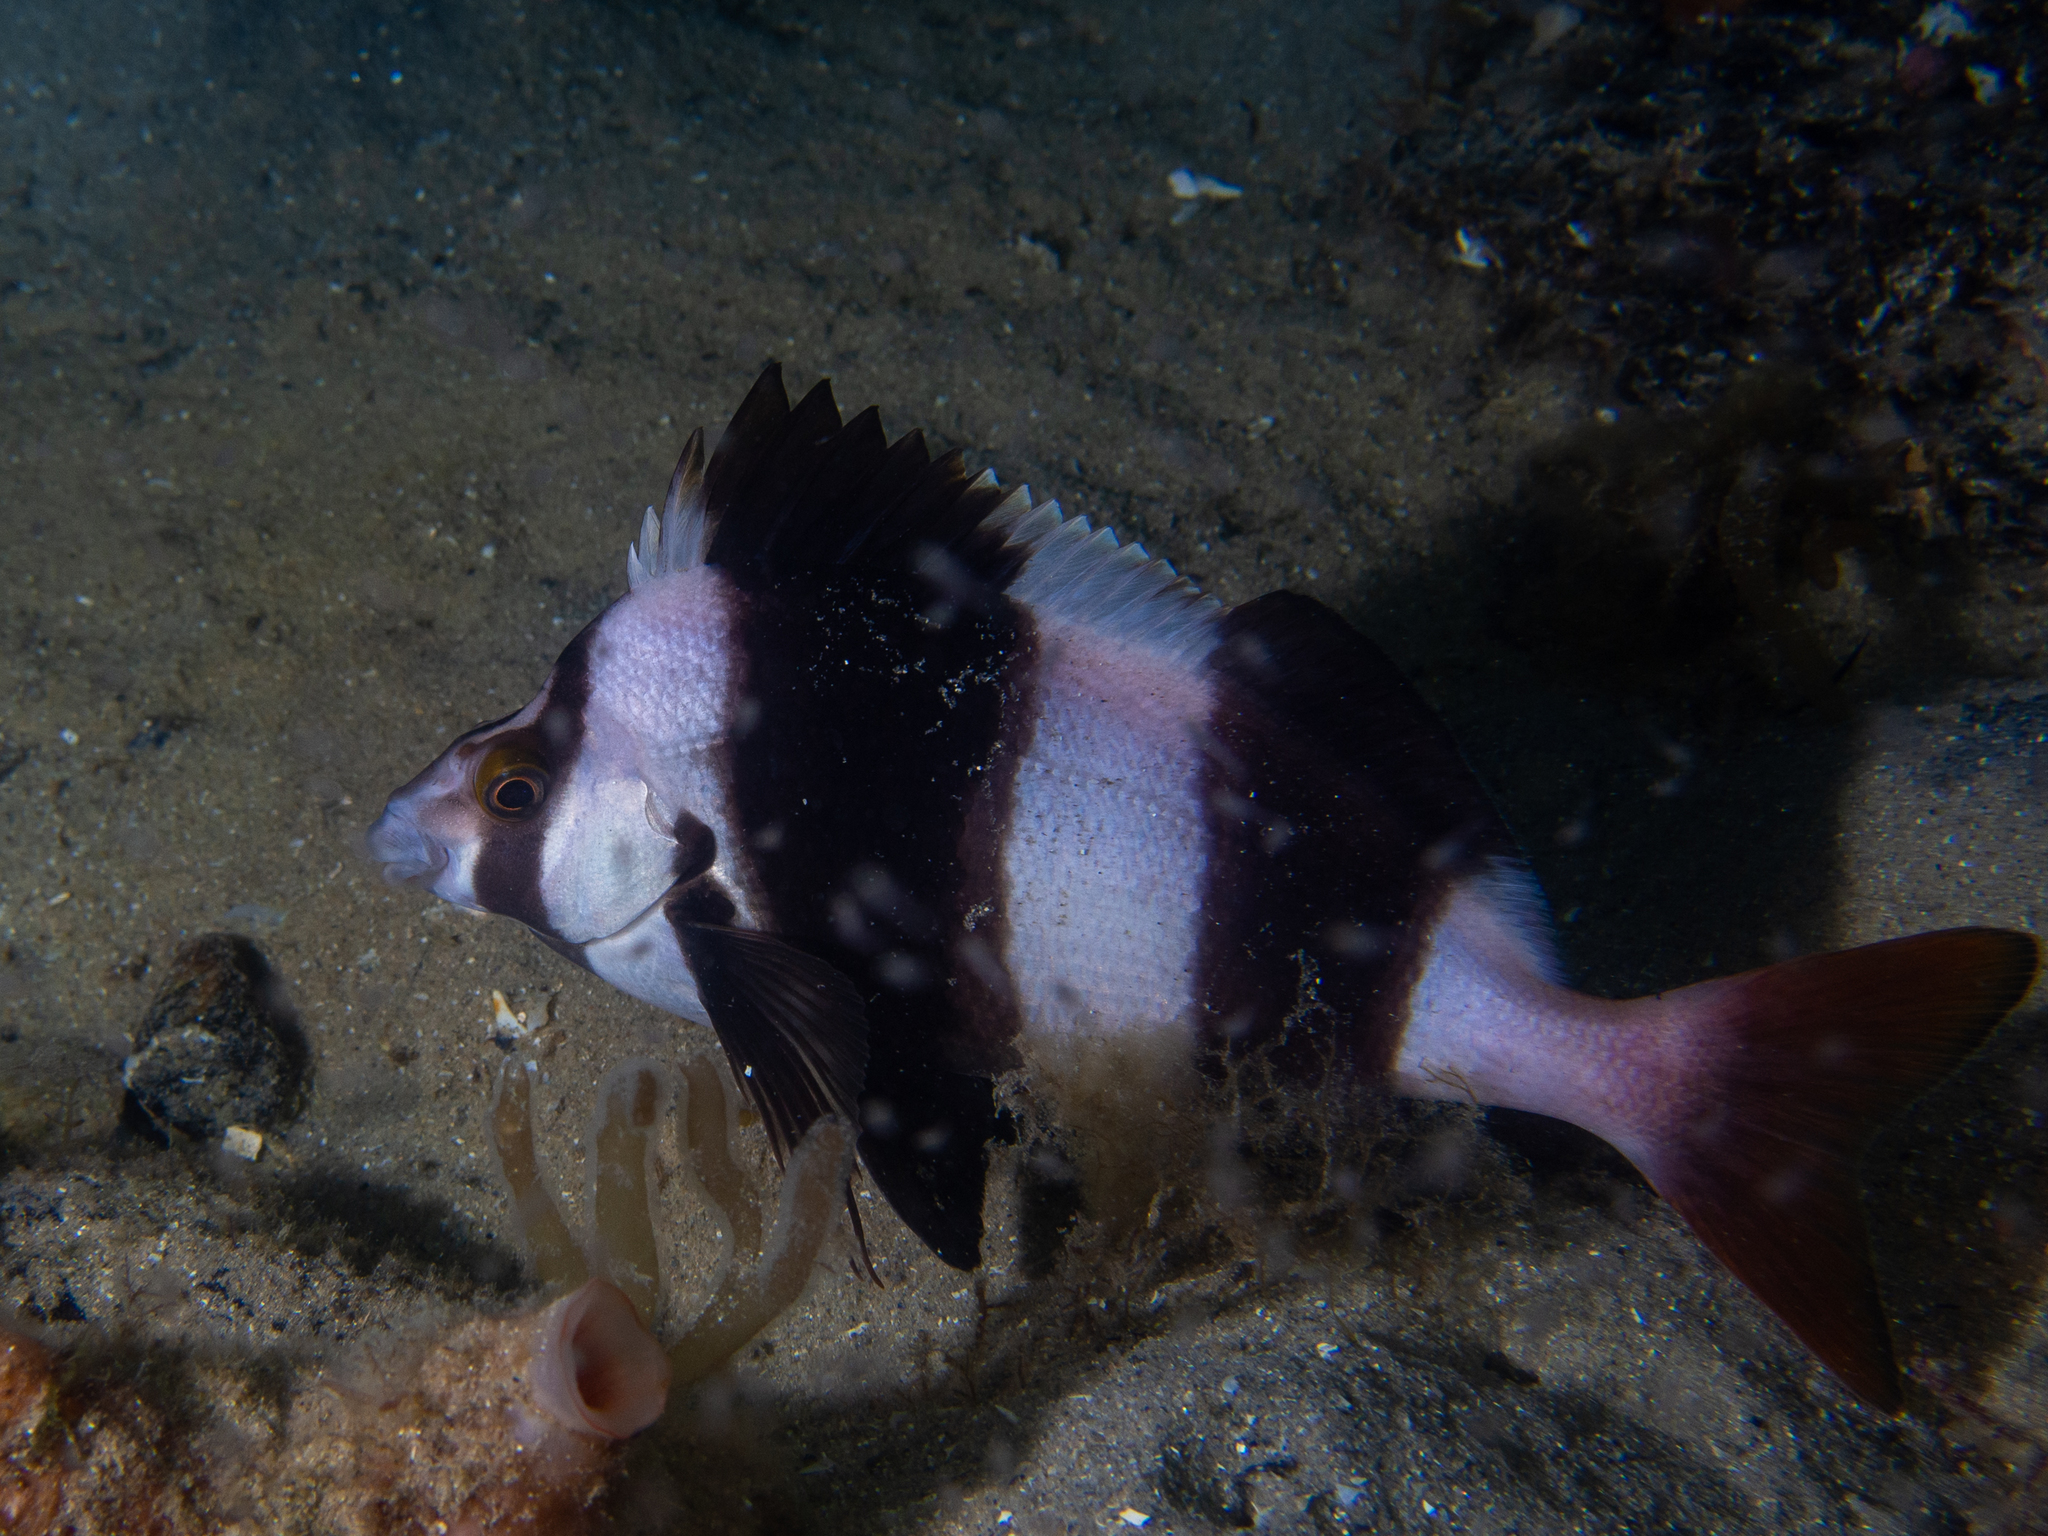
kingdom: Animalia
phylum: Chordata
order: Perciformes
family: Latridae
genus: Pseudogoniistius
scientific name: Pseudogoniistius nigripes
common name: Black-striped morwong
